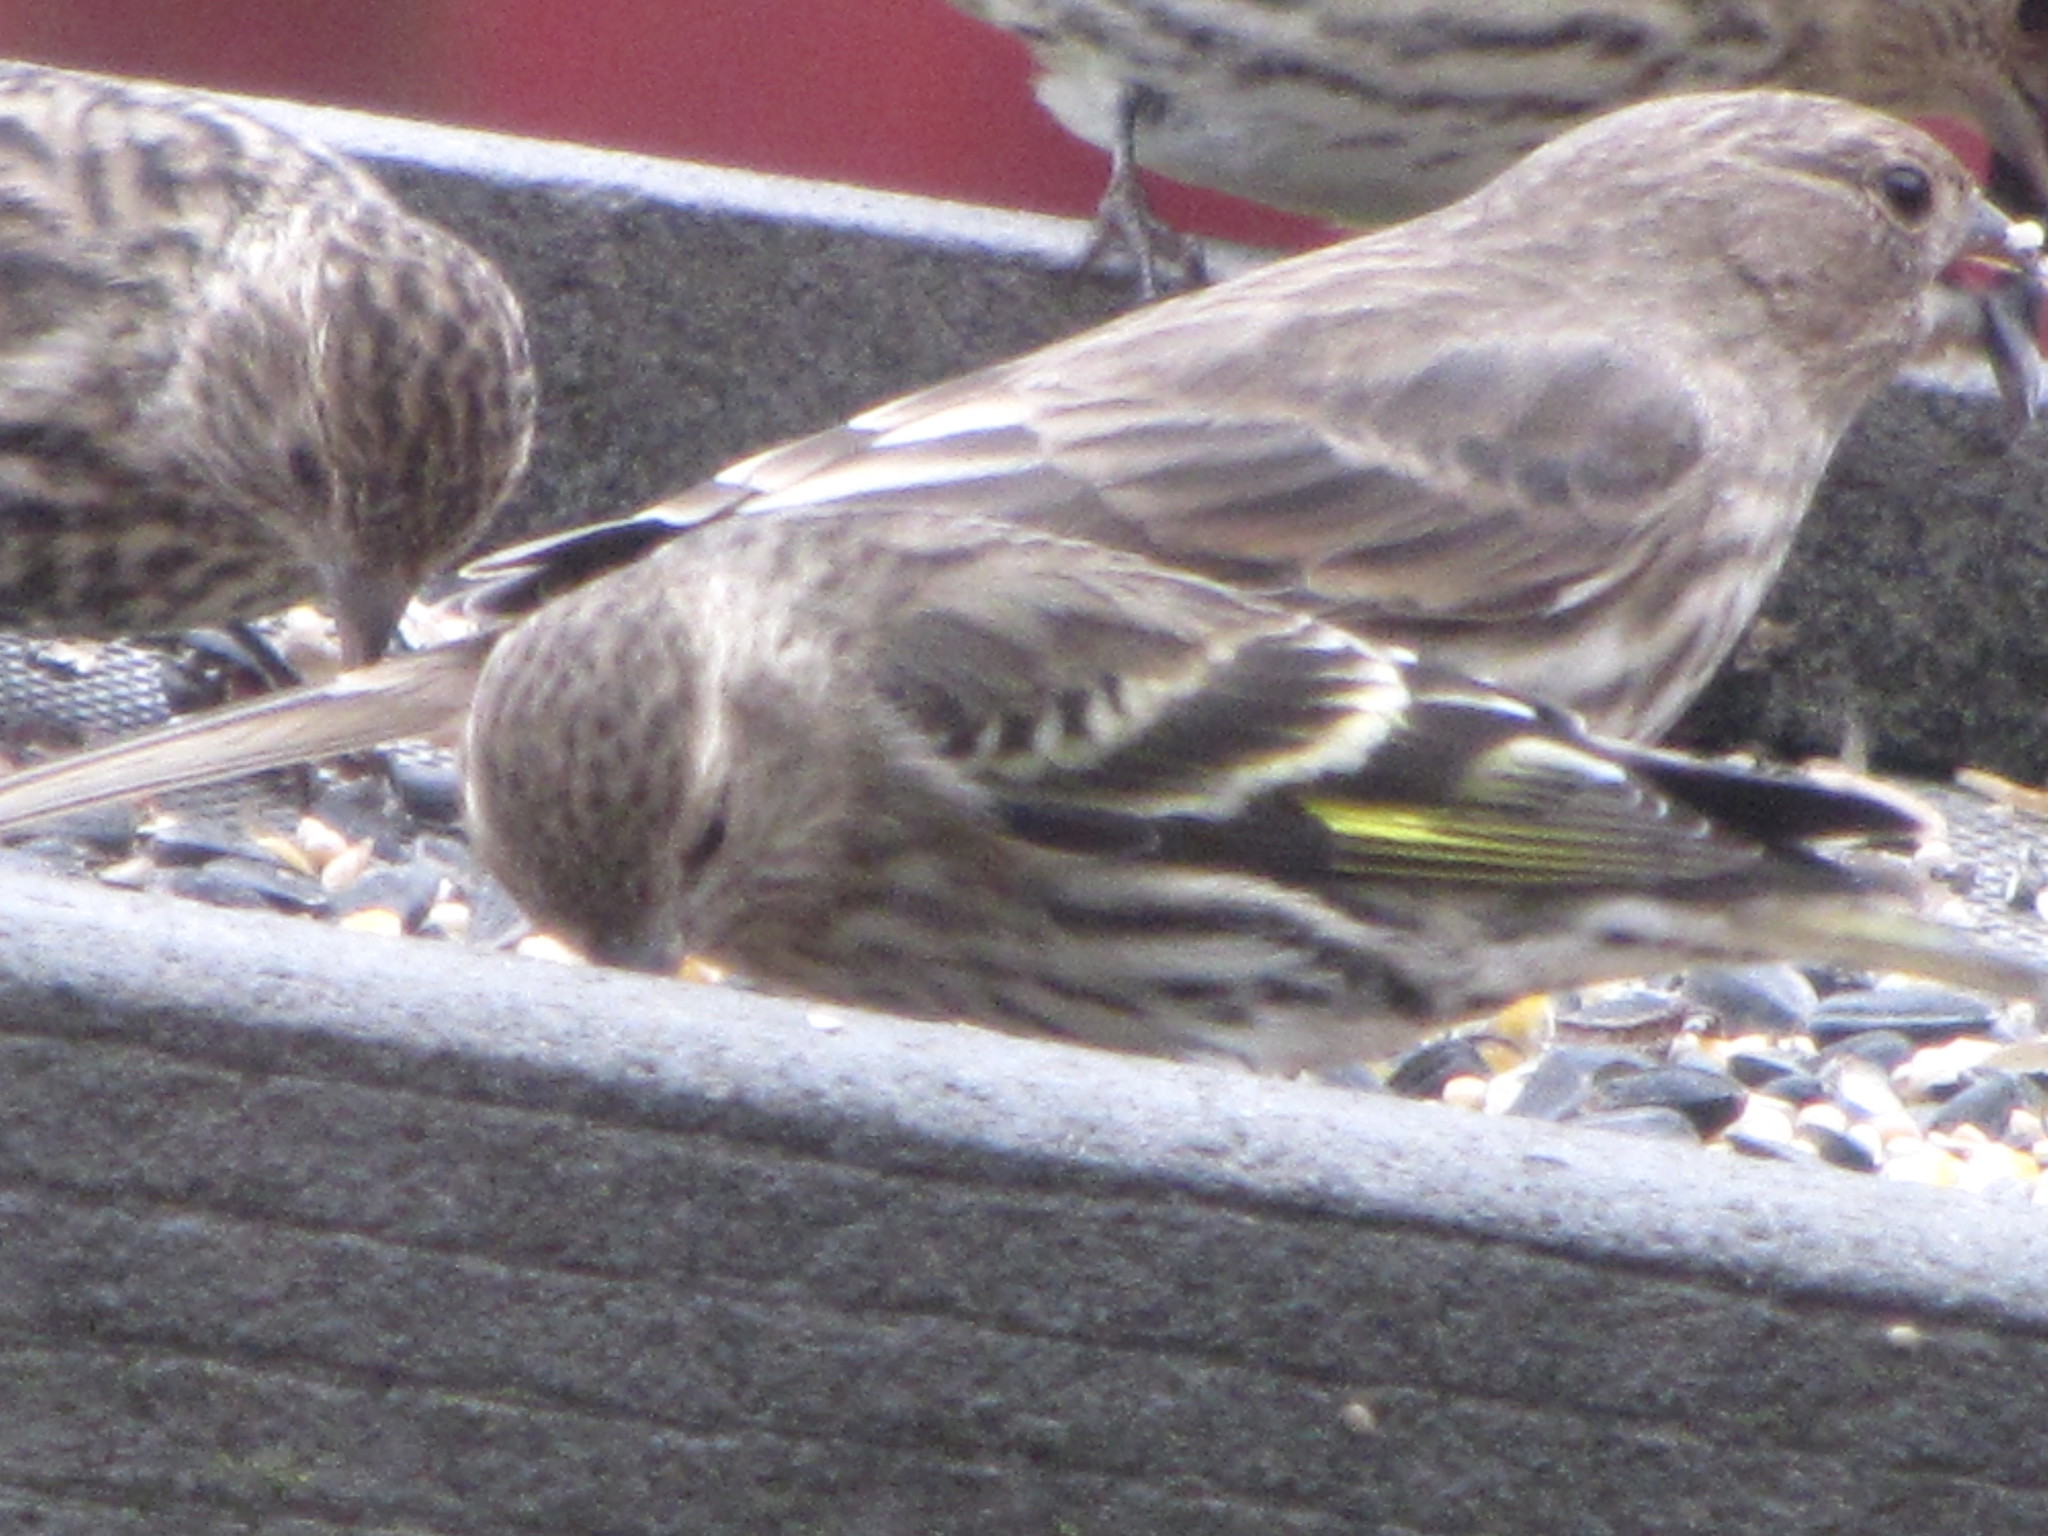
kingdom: Animalia
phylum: Chordata
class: Aves
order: Passeriformes
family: Fringillidae
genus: Spinus
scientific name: Spinus pinus
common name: Pine siskin
